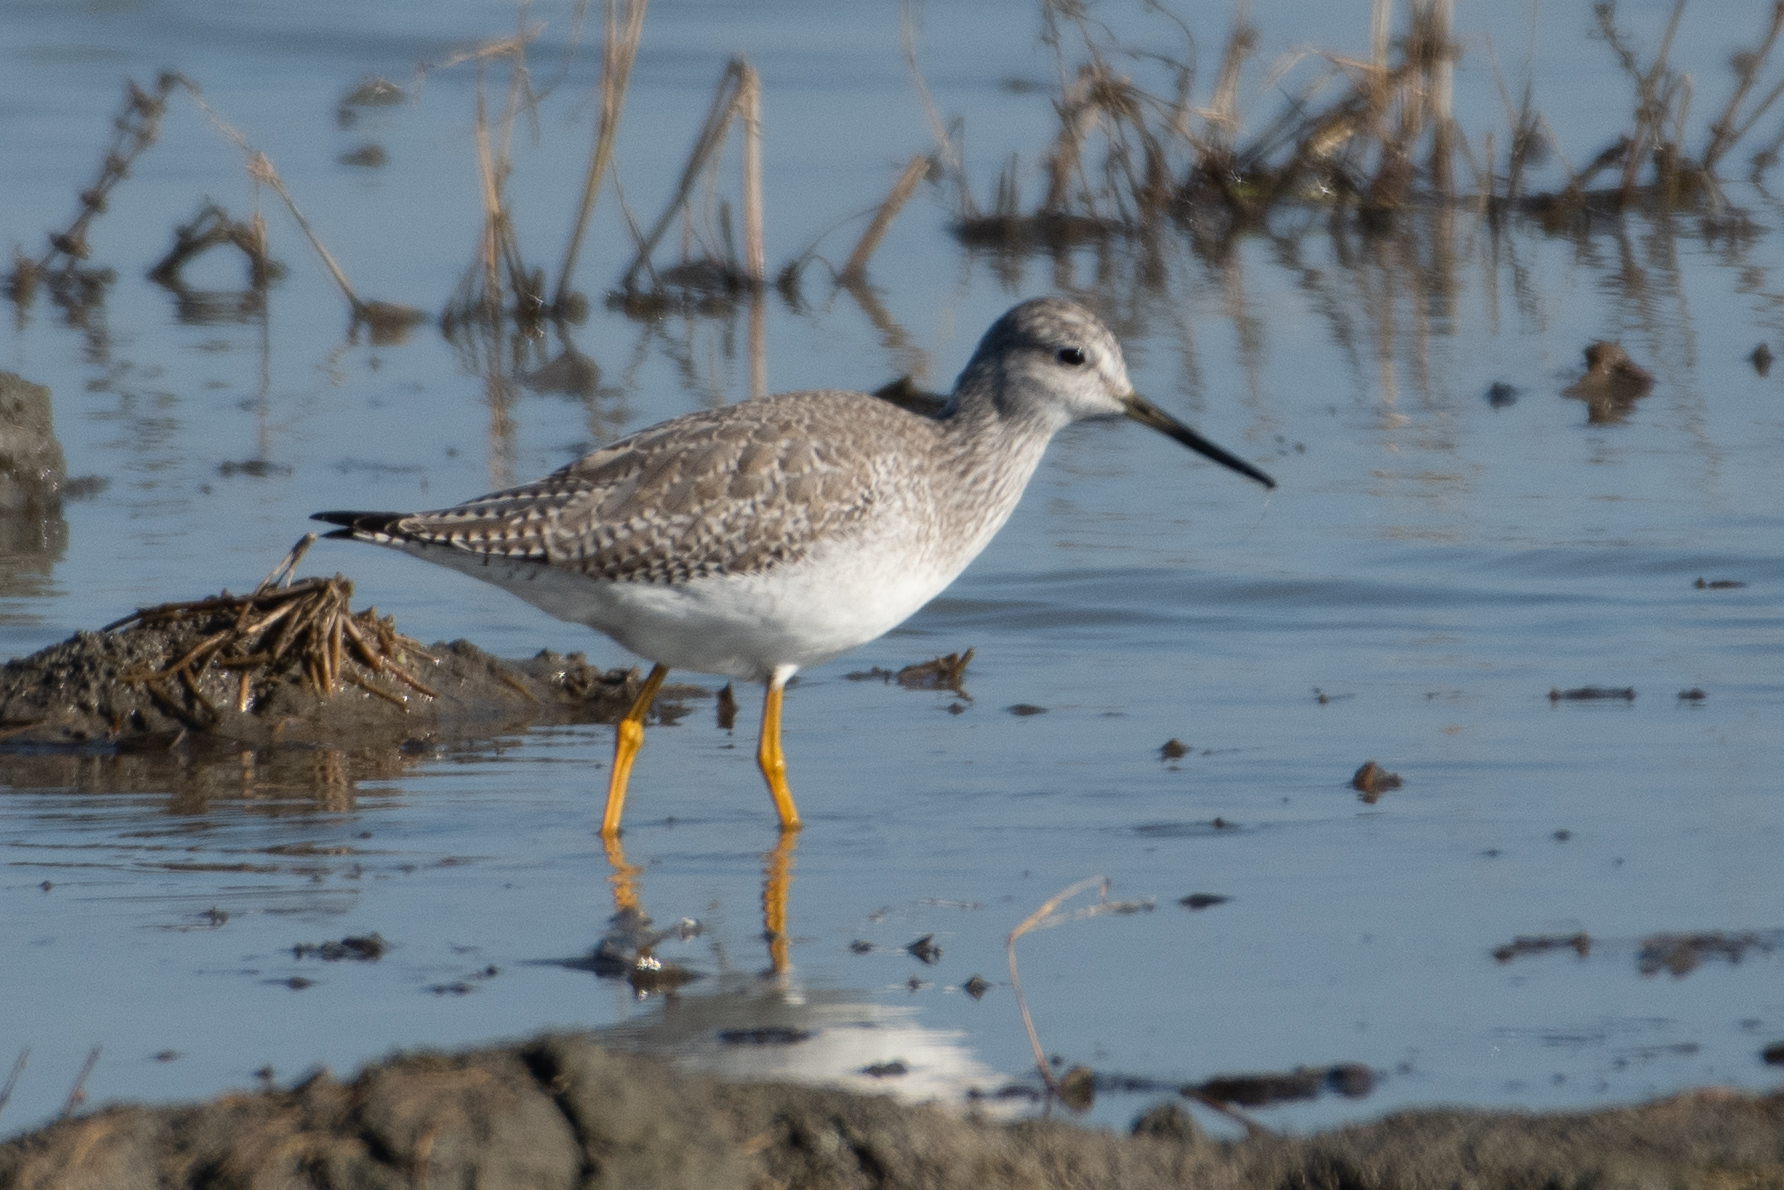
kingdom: Animalia
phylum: Chordata
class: Aves
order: Charadriiformes
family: Scolopacidae
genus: Tringa
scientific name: Tringa melanoleuca
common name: Greater yellowlegs
